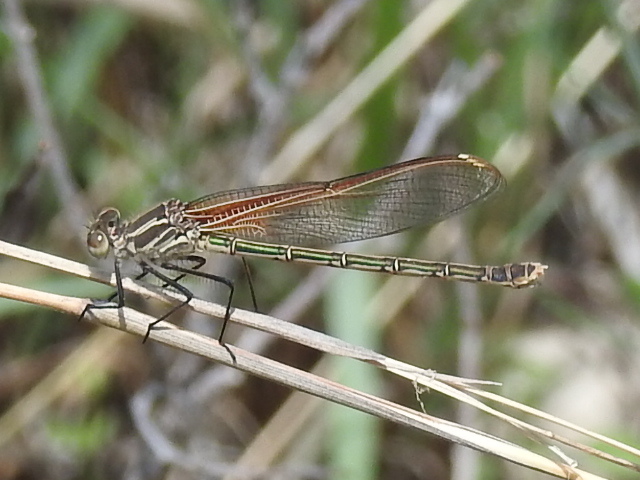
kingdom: Animalia
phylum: Arthropoda
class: Insecta
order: Odonata
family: Calopterygidae
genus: Hetaerina
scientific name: Hetaerina americana
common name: American rubyspot
